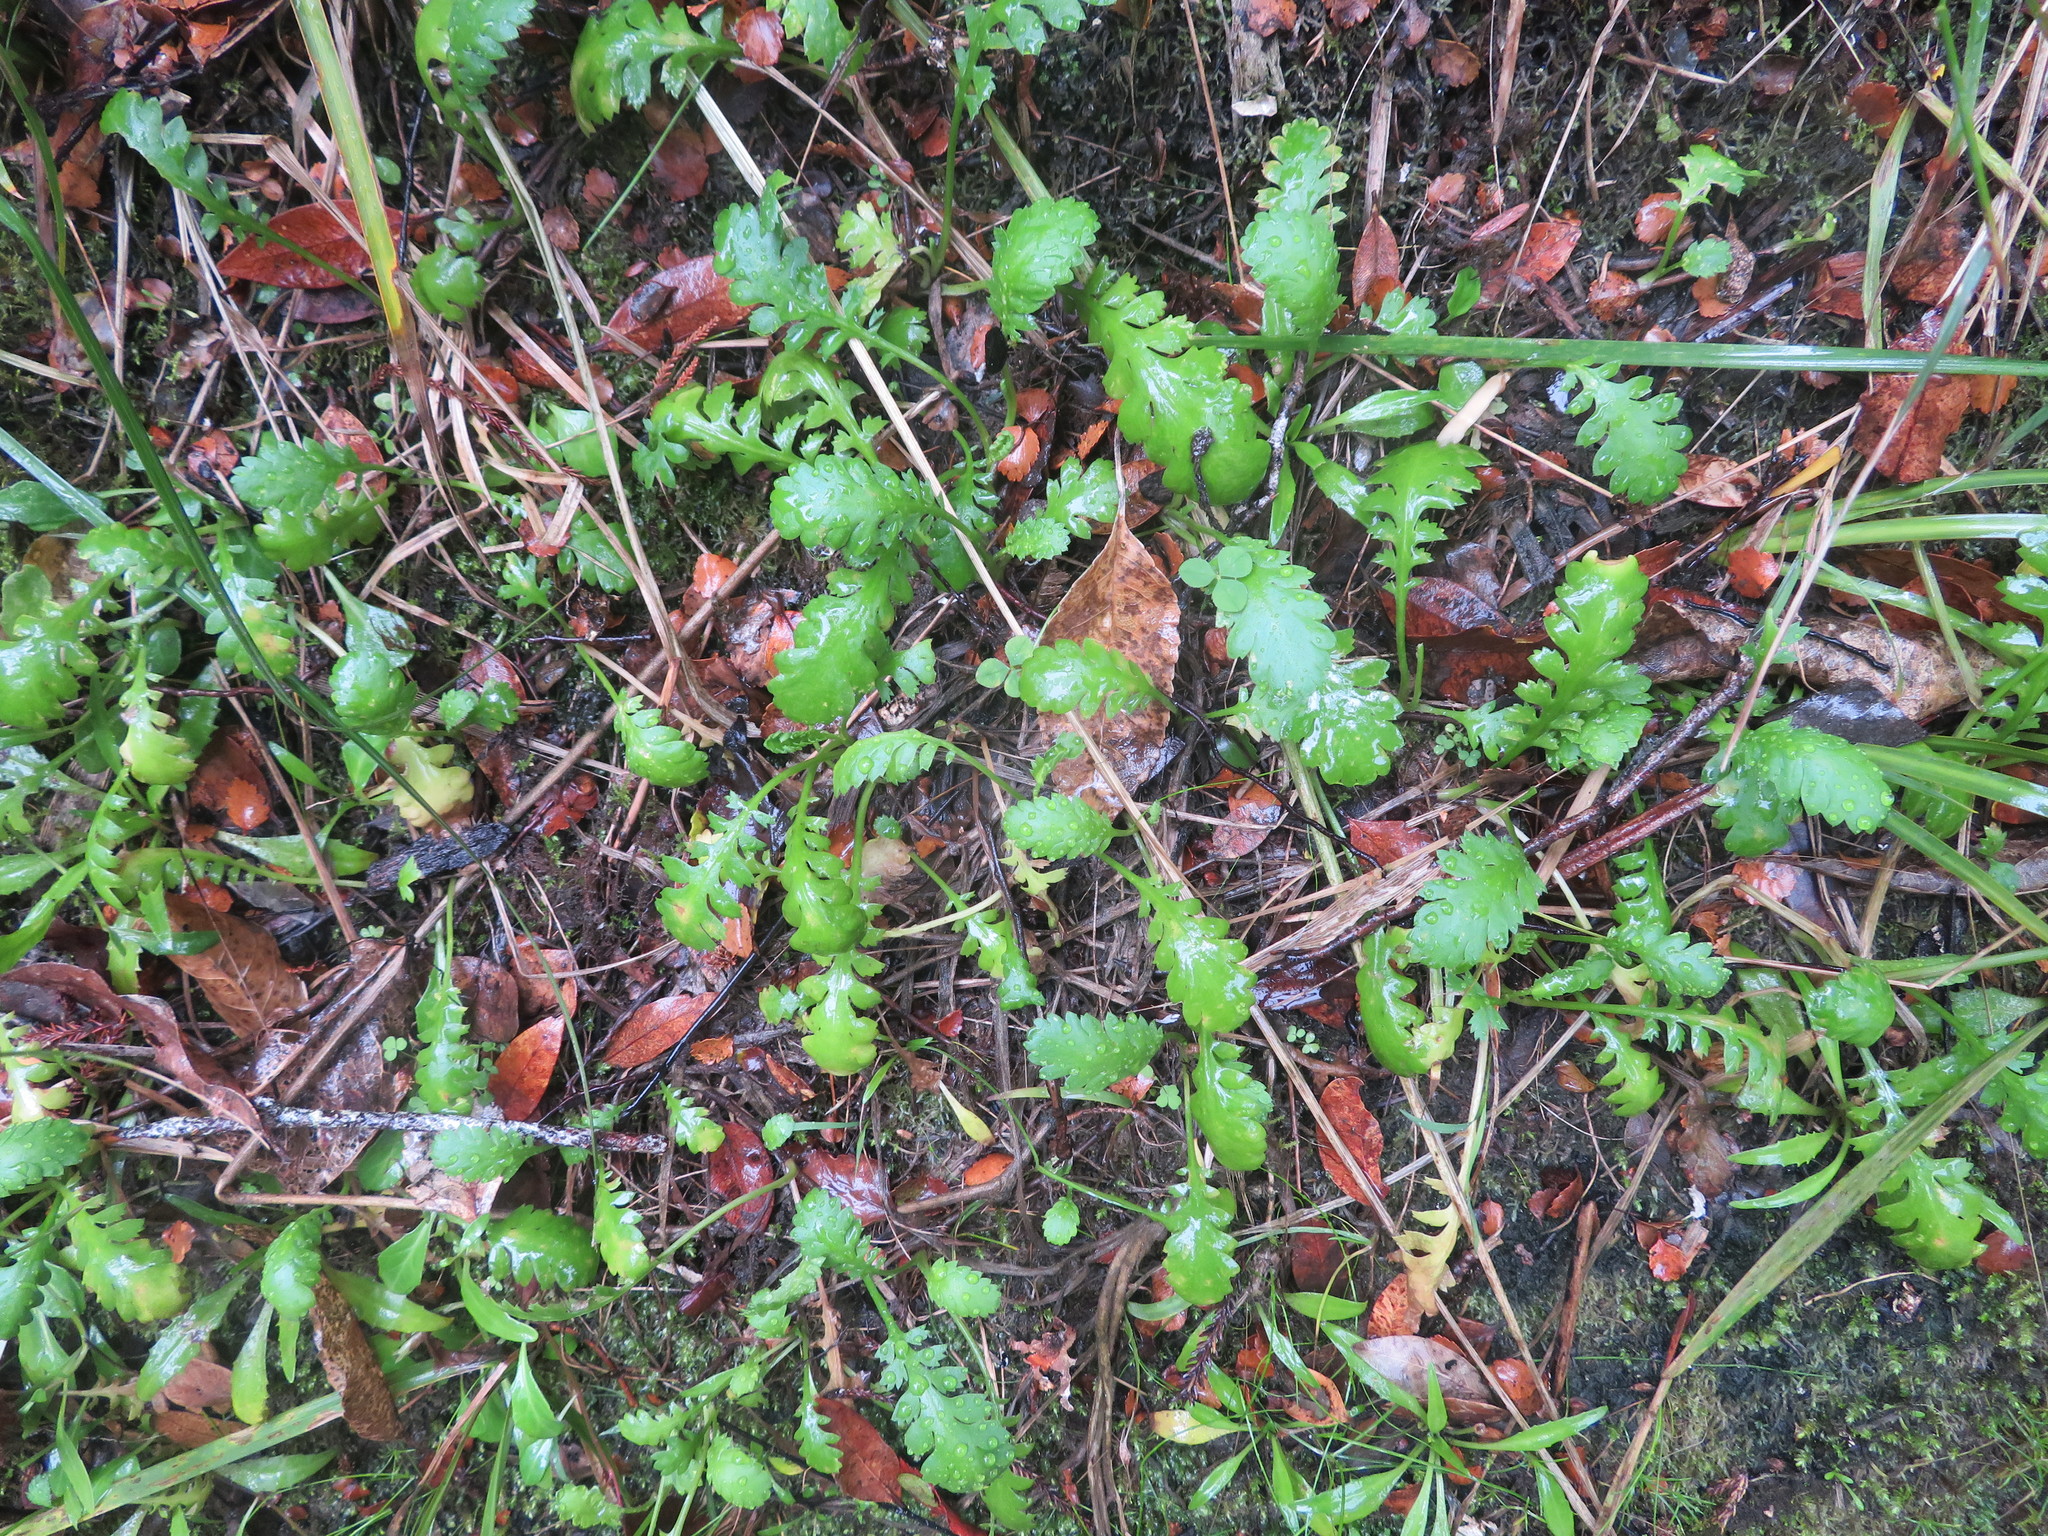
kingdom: Plantae
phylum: Tracheophyta
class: Magnoliopsida
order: Asterales
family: Asteraceae
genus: Leptinella
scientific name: Leptinella dioica
